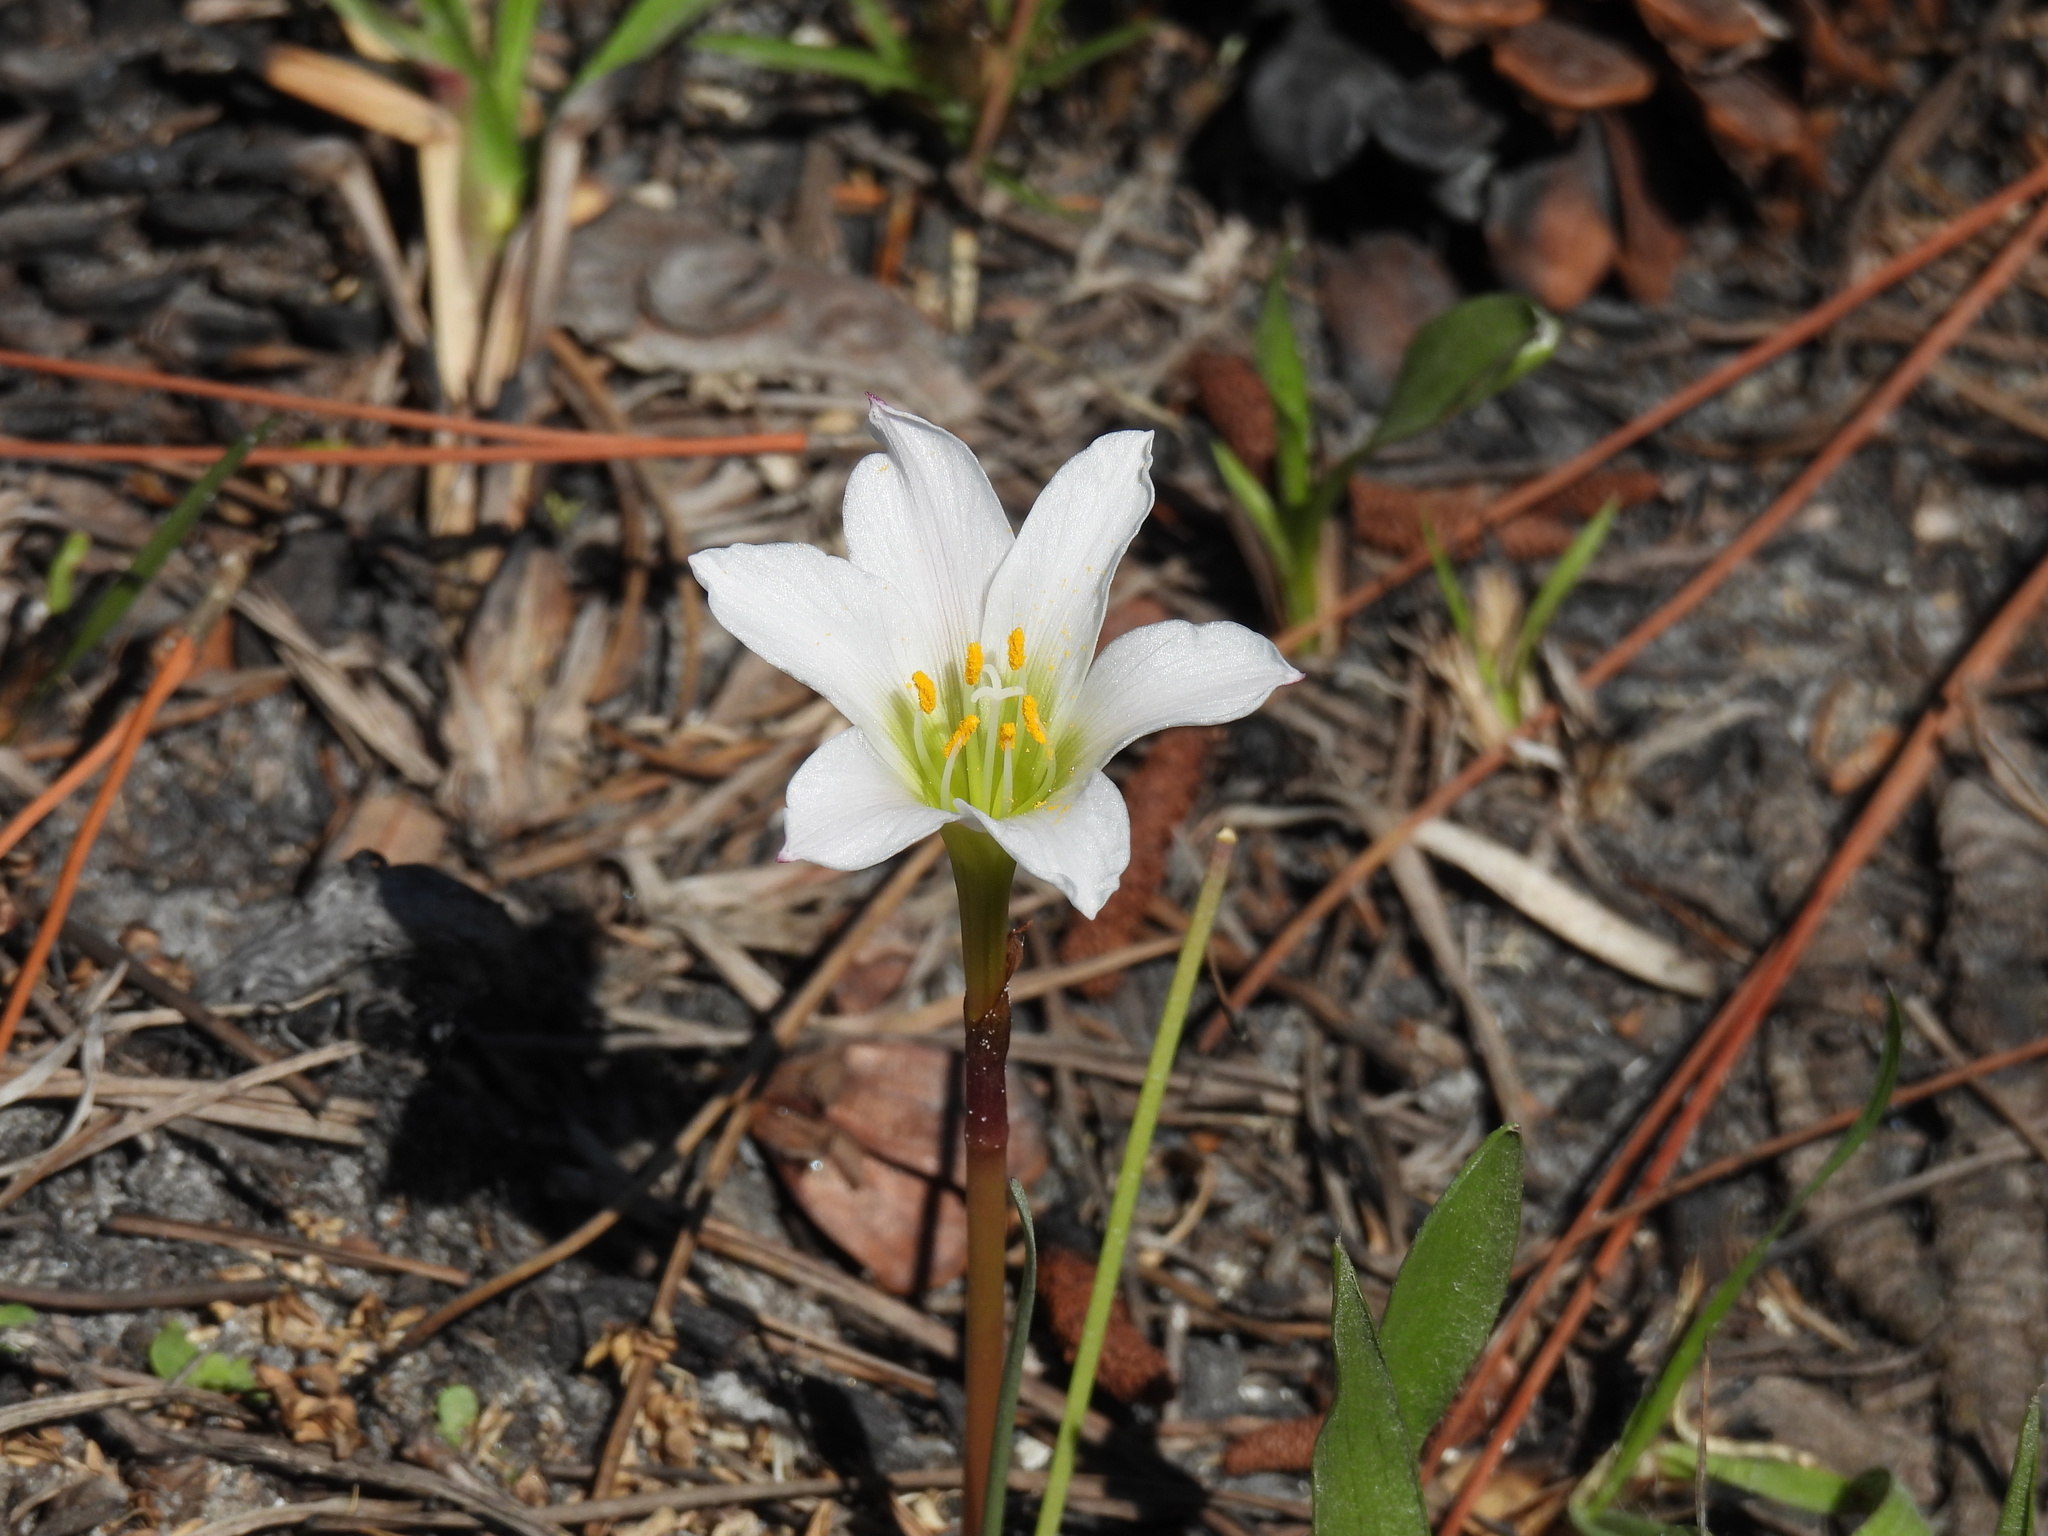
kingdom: Plantae
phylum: Tracheophyta
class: Liliopsida
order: Asparagales
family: Amaryllidaceae
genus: Zephyranthes
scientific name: Zephyranthes simpsonii
